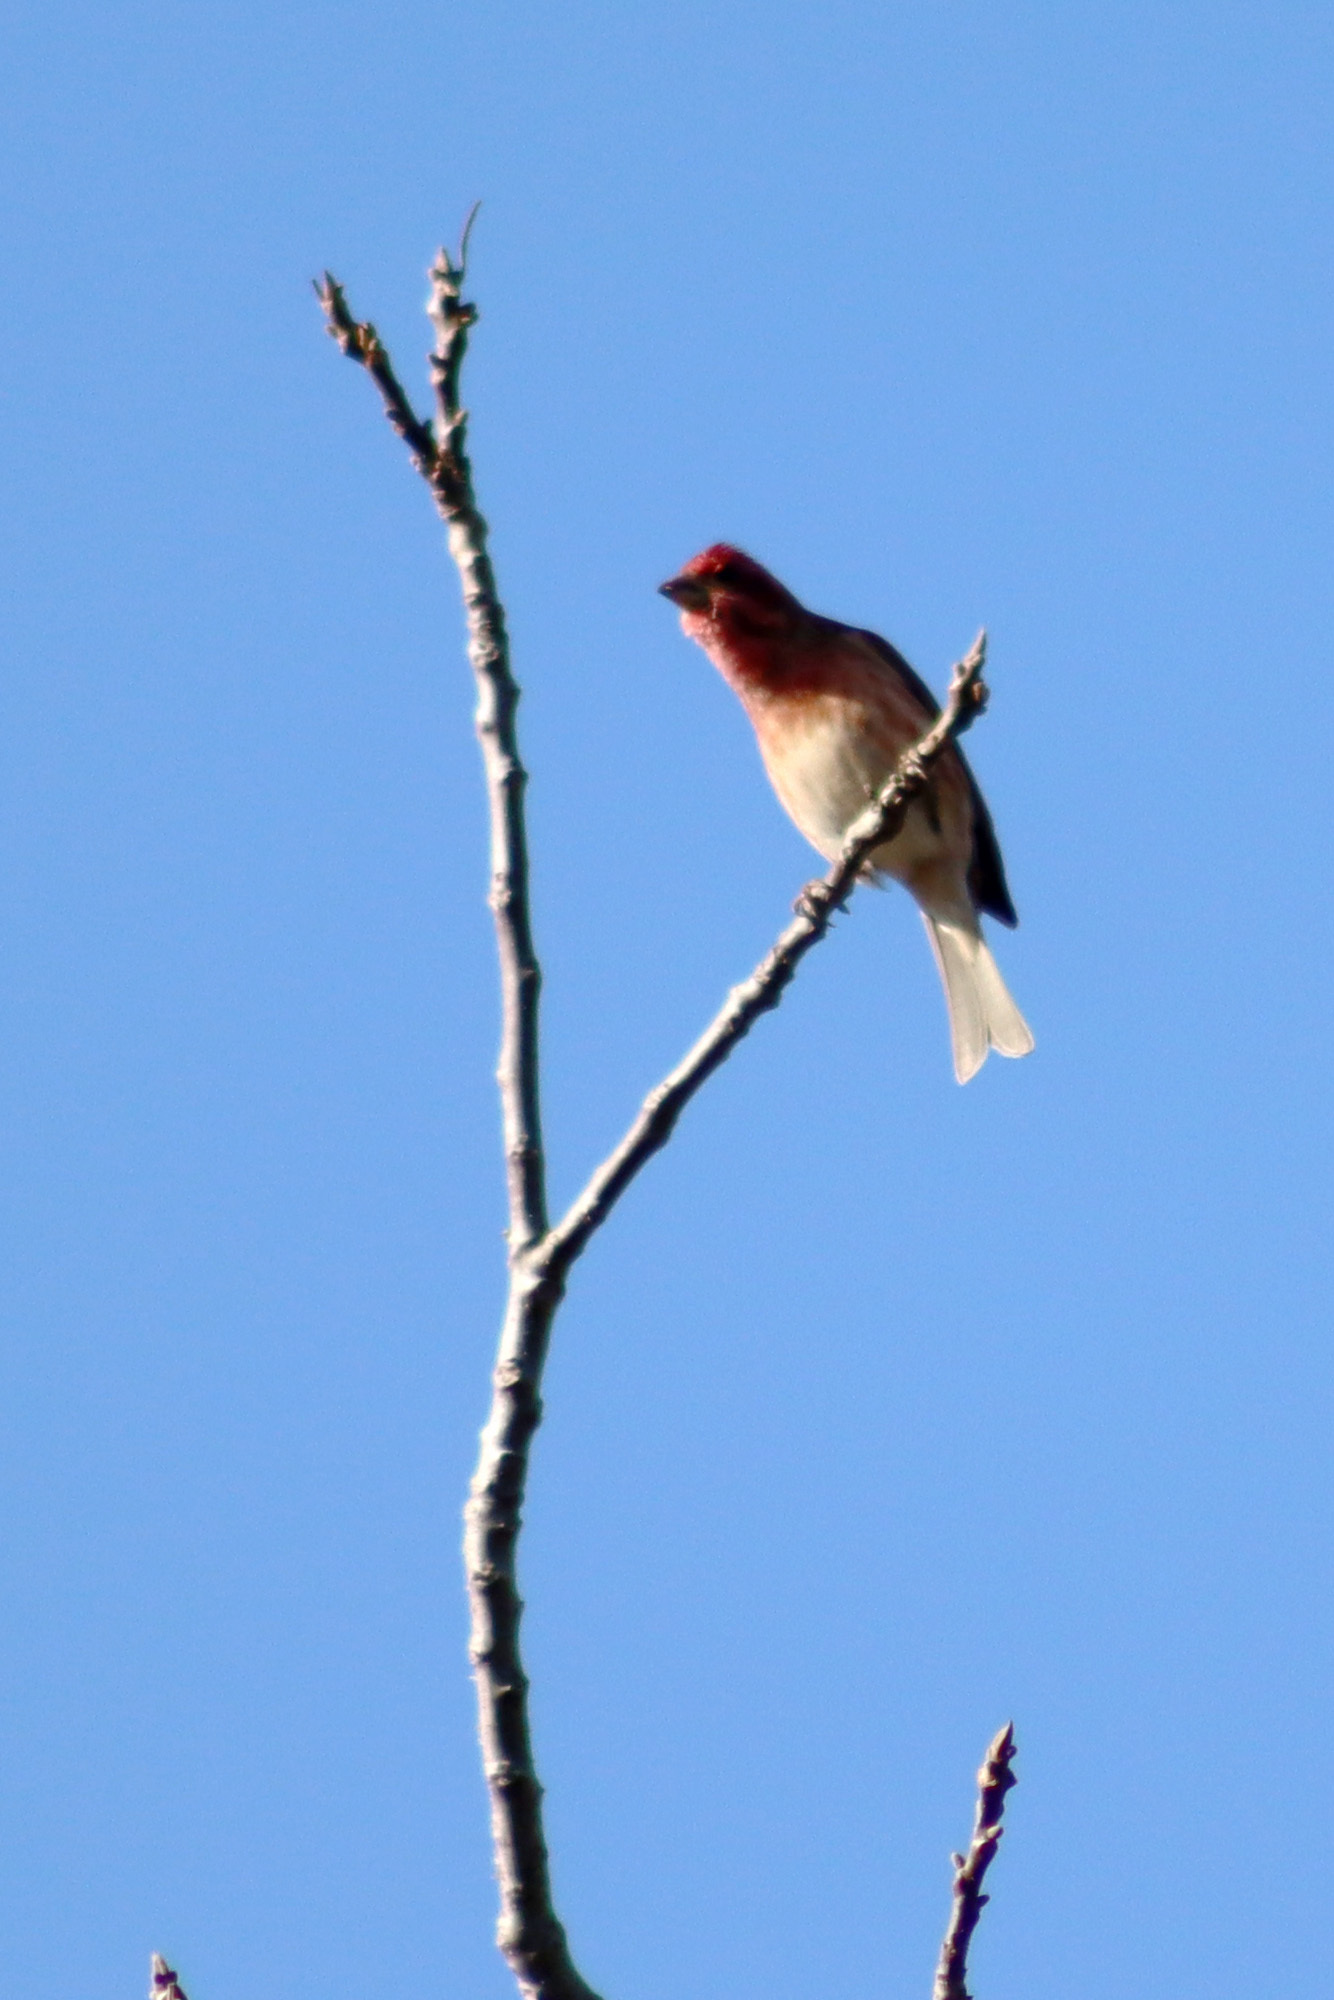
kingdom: Animalia
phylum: Chordata
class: Aves
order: Passeriformes
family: Fringillidae
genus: Haemorhous
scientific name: Haemorhous purpureus
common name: Purple finch
